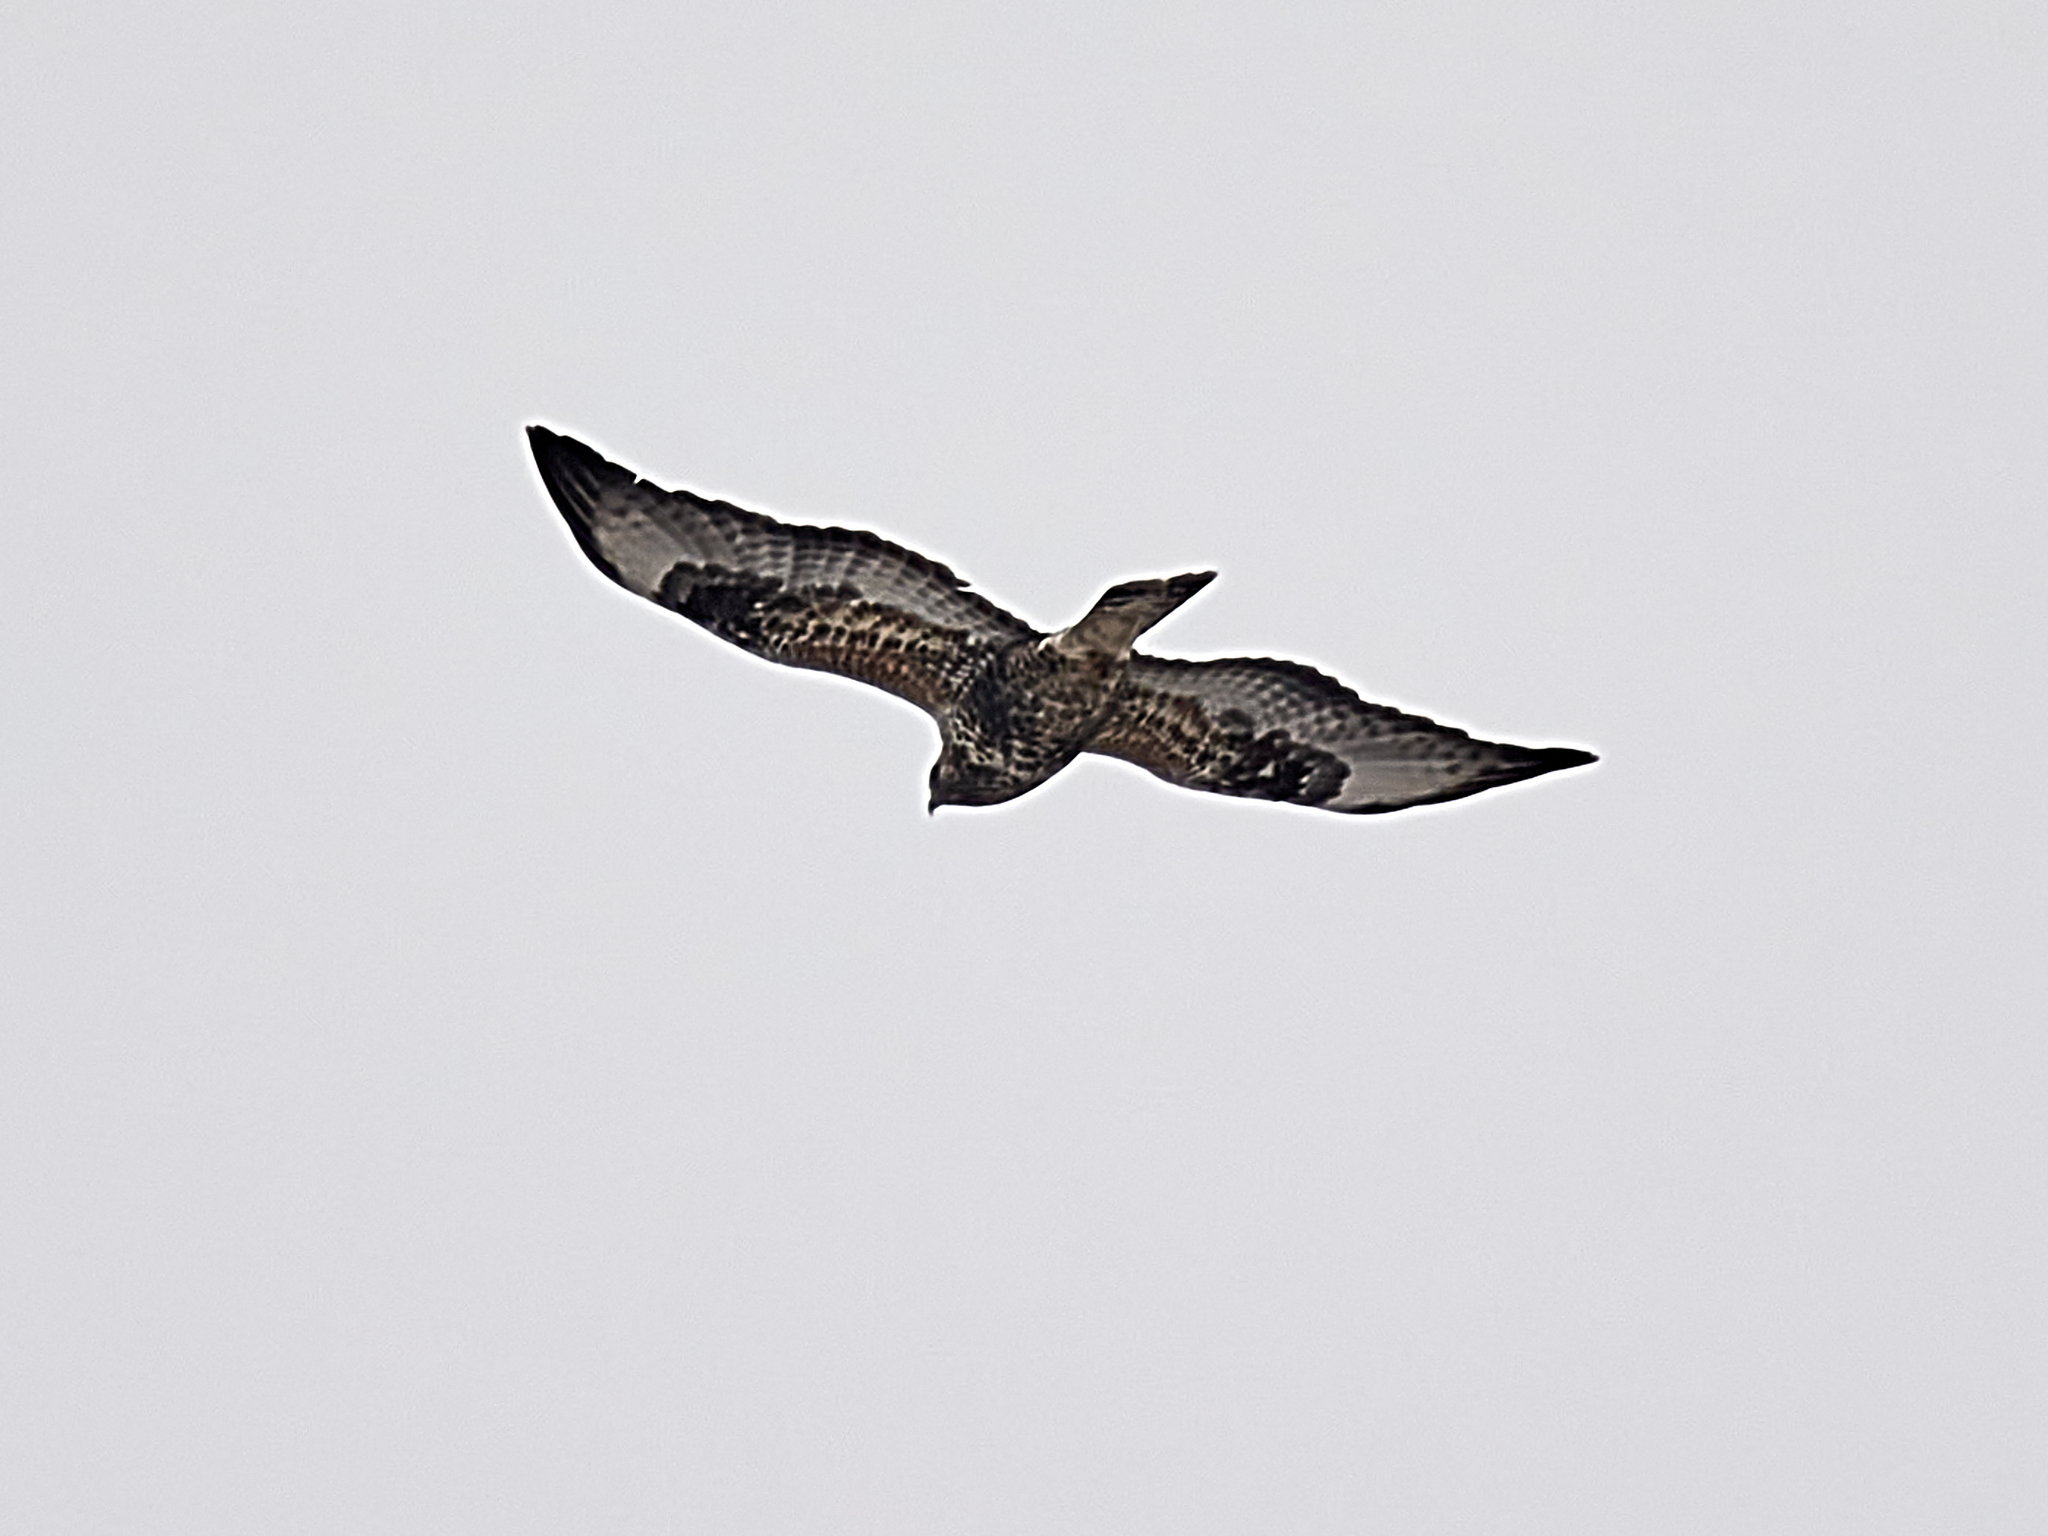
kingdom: Animalia
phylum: Chordata
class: Aves
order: Accipitriformes
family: Accipitridae
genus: Buteo
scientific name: Buteo buteo
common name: Common buzzard
